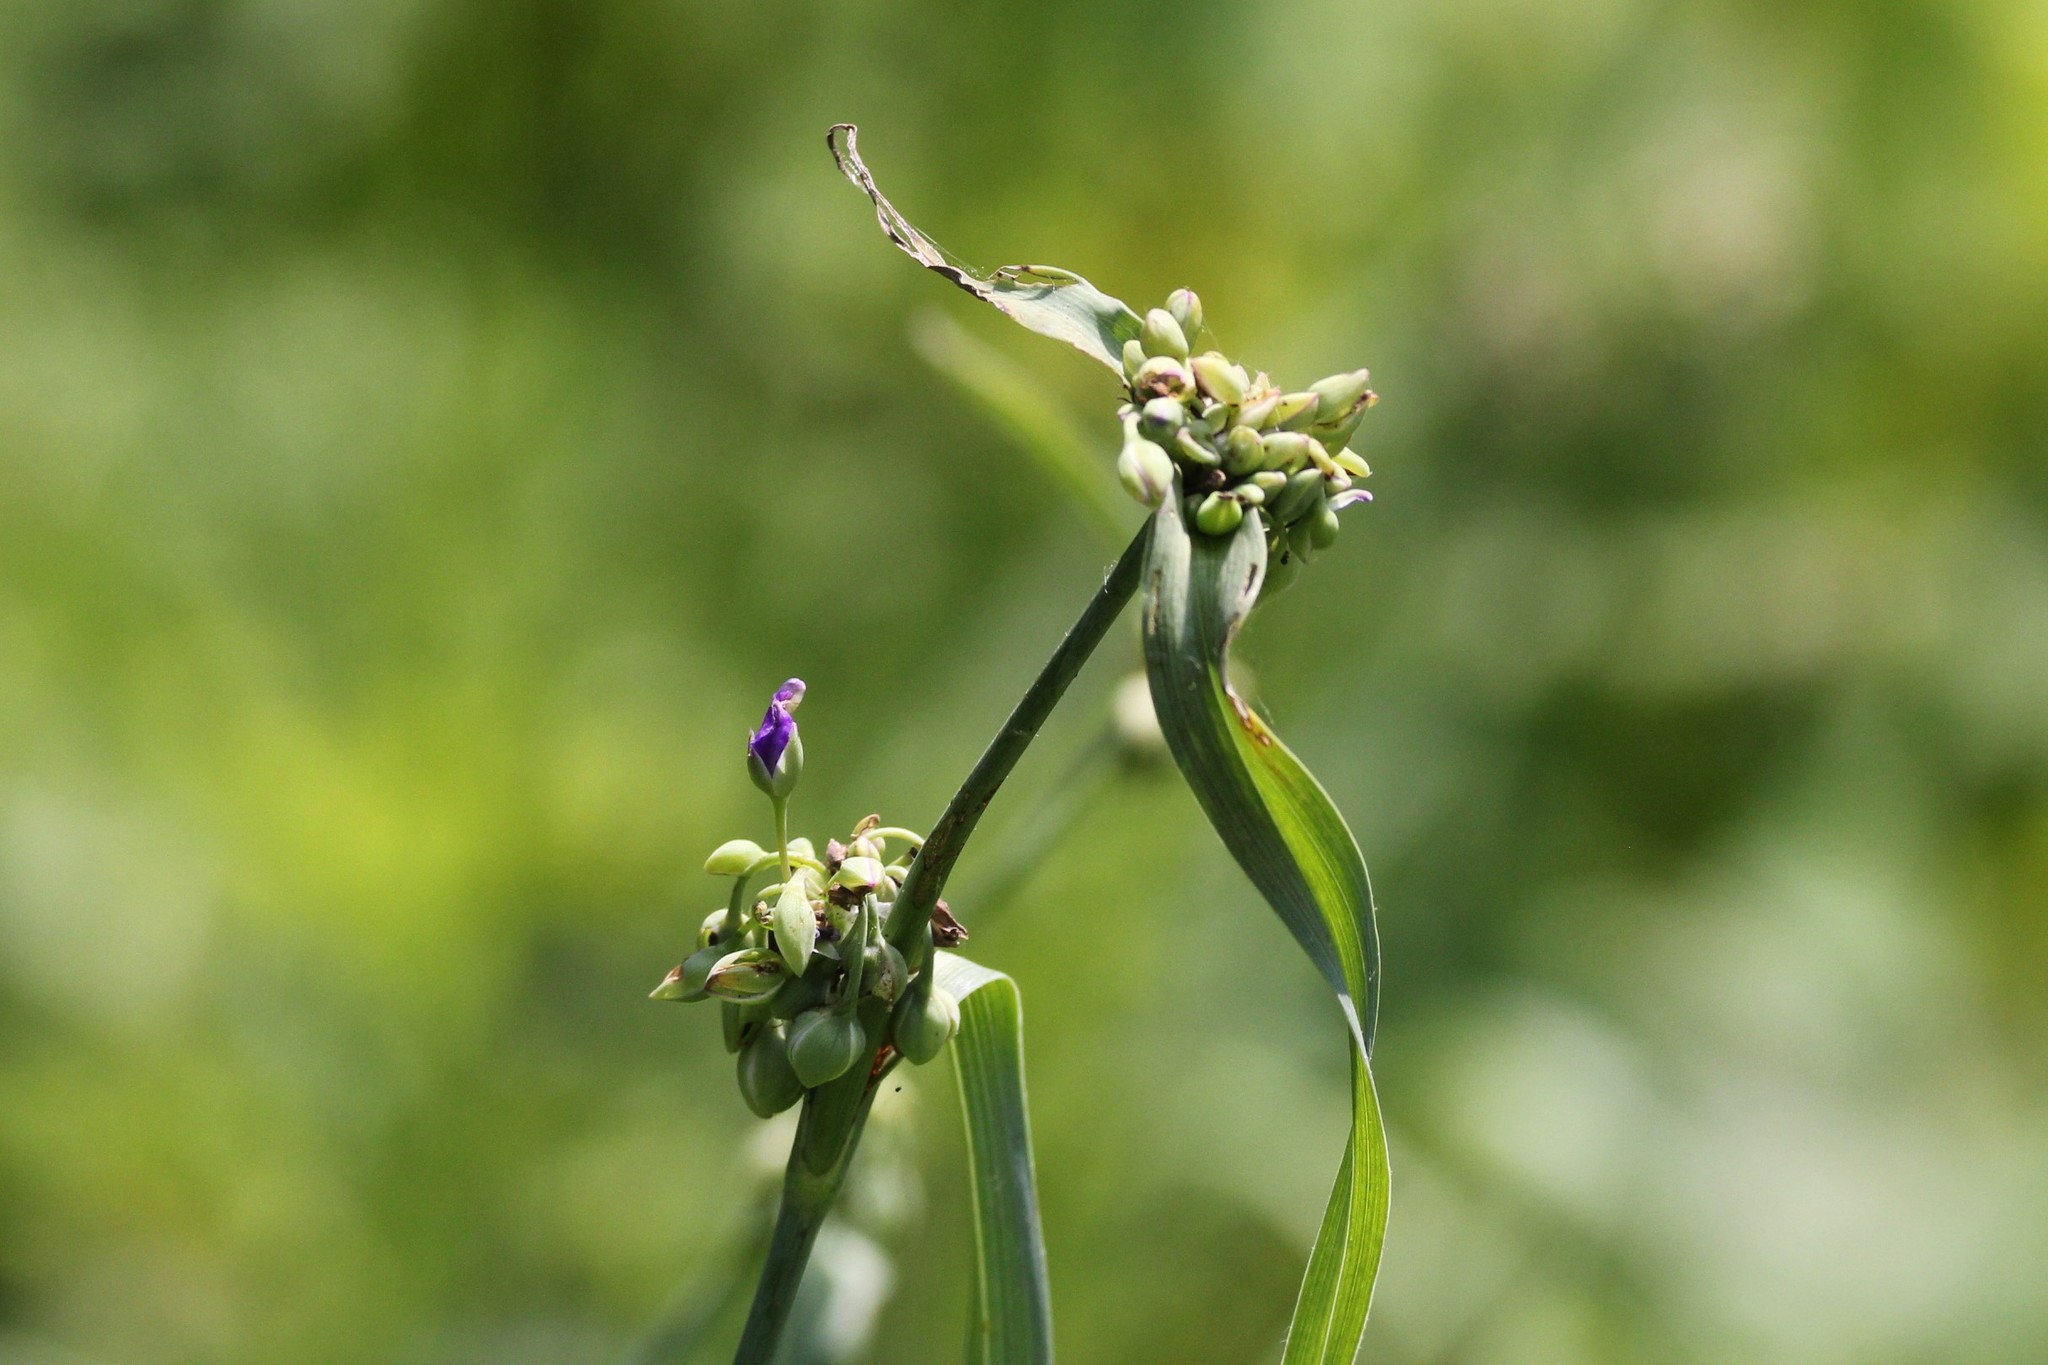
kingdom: Plantae
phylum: Tracheophyta
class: Liliopsida
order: Commelinales
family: Commelinaceae
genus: Tradescantia
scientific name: Tradescantia ohiensis
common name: Ohio spiderwort
